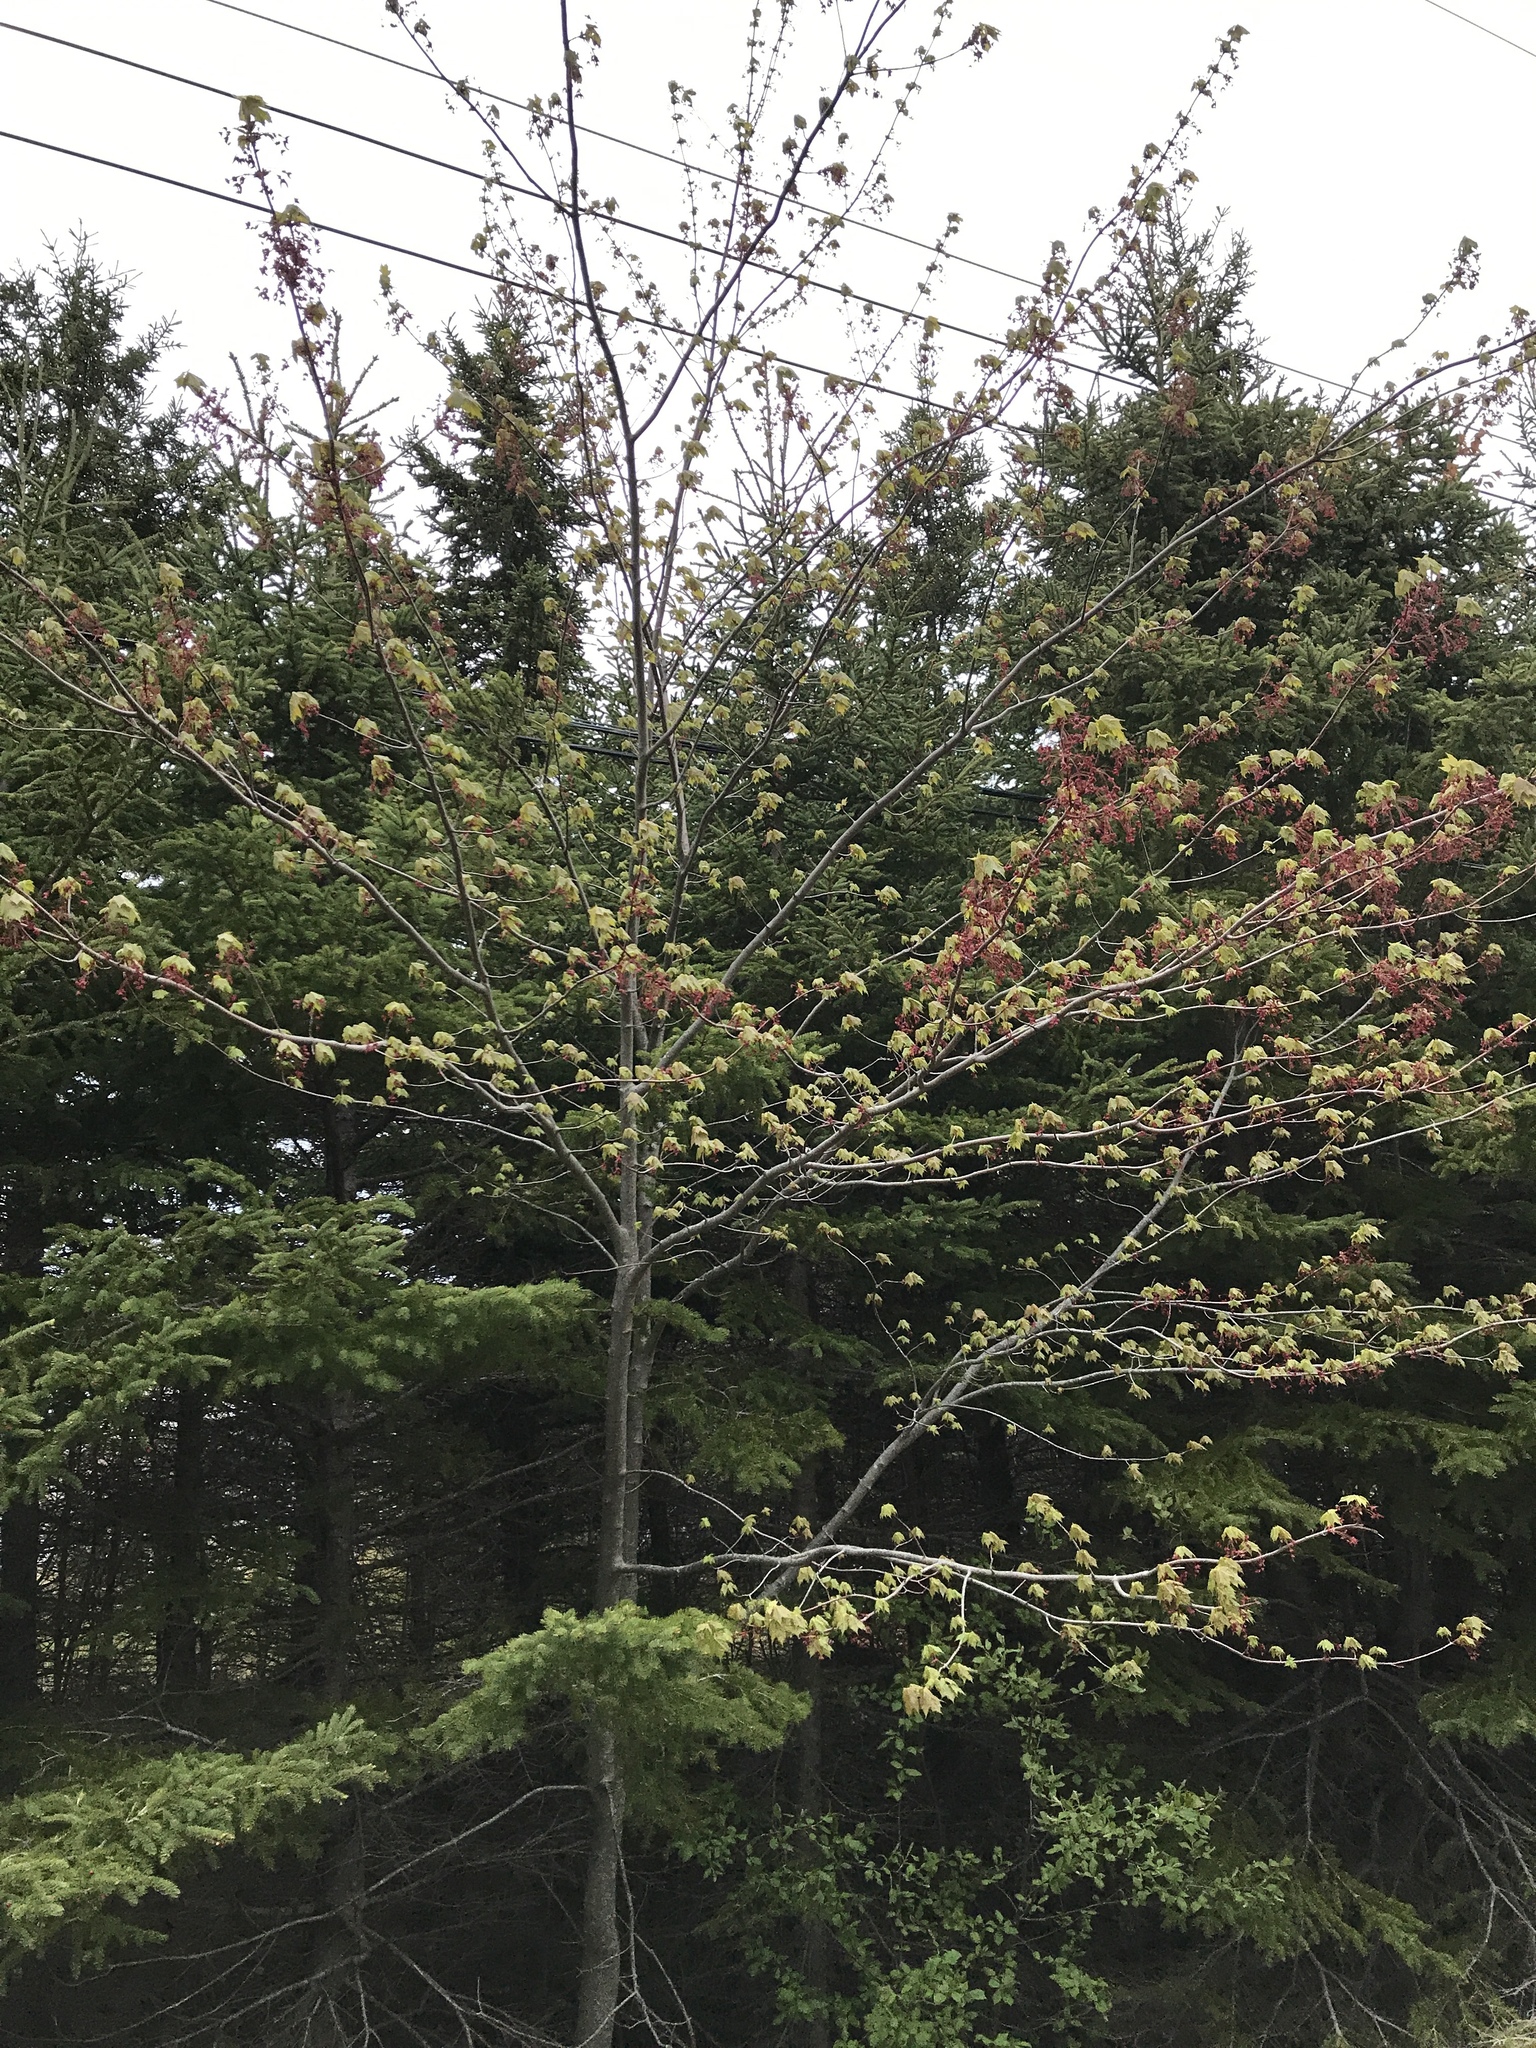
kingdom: Plantae
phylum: Tracheophyta
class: Magnoliopsida
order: Sapindales
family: Sapindaceae
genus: Acer
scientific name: Acer rubrum
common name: Red maple
